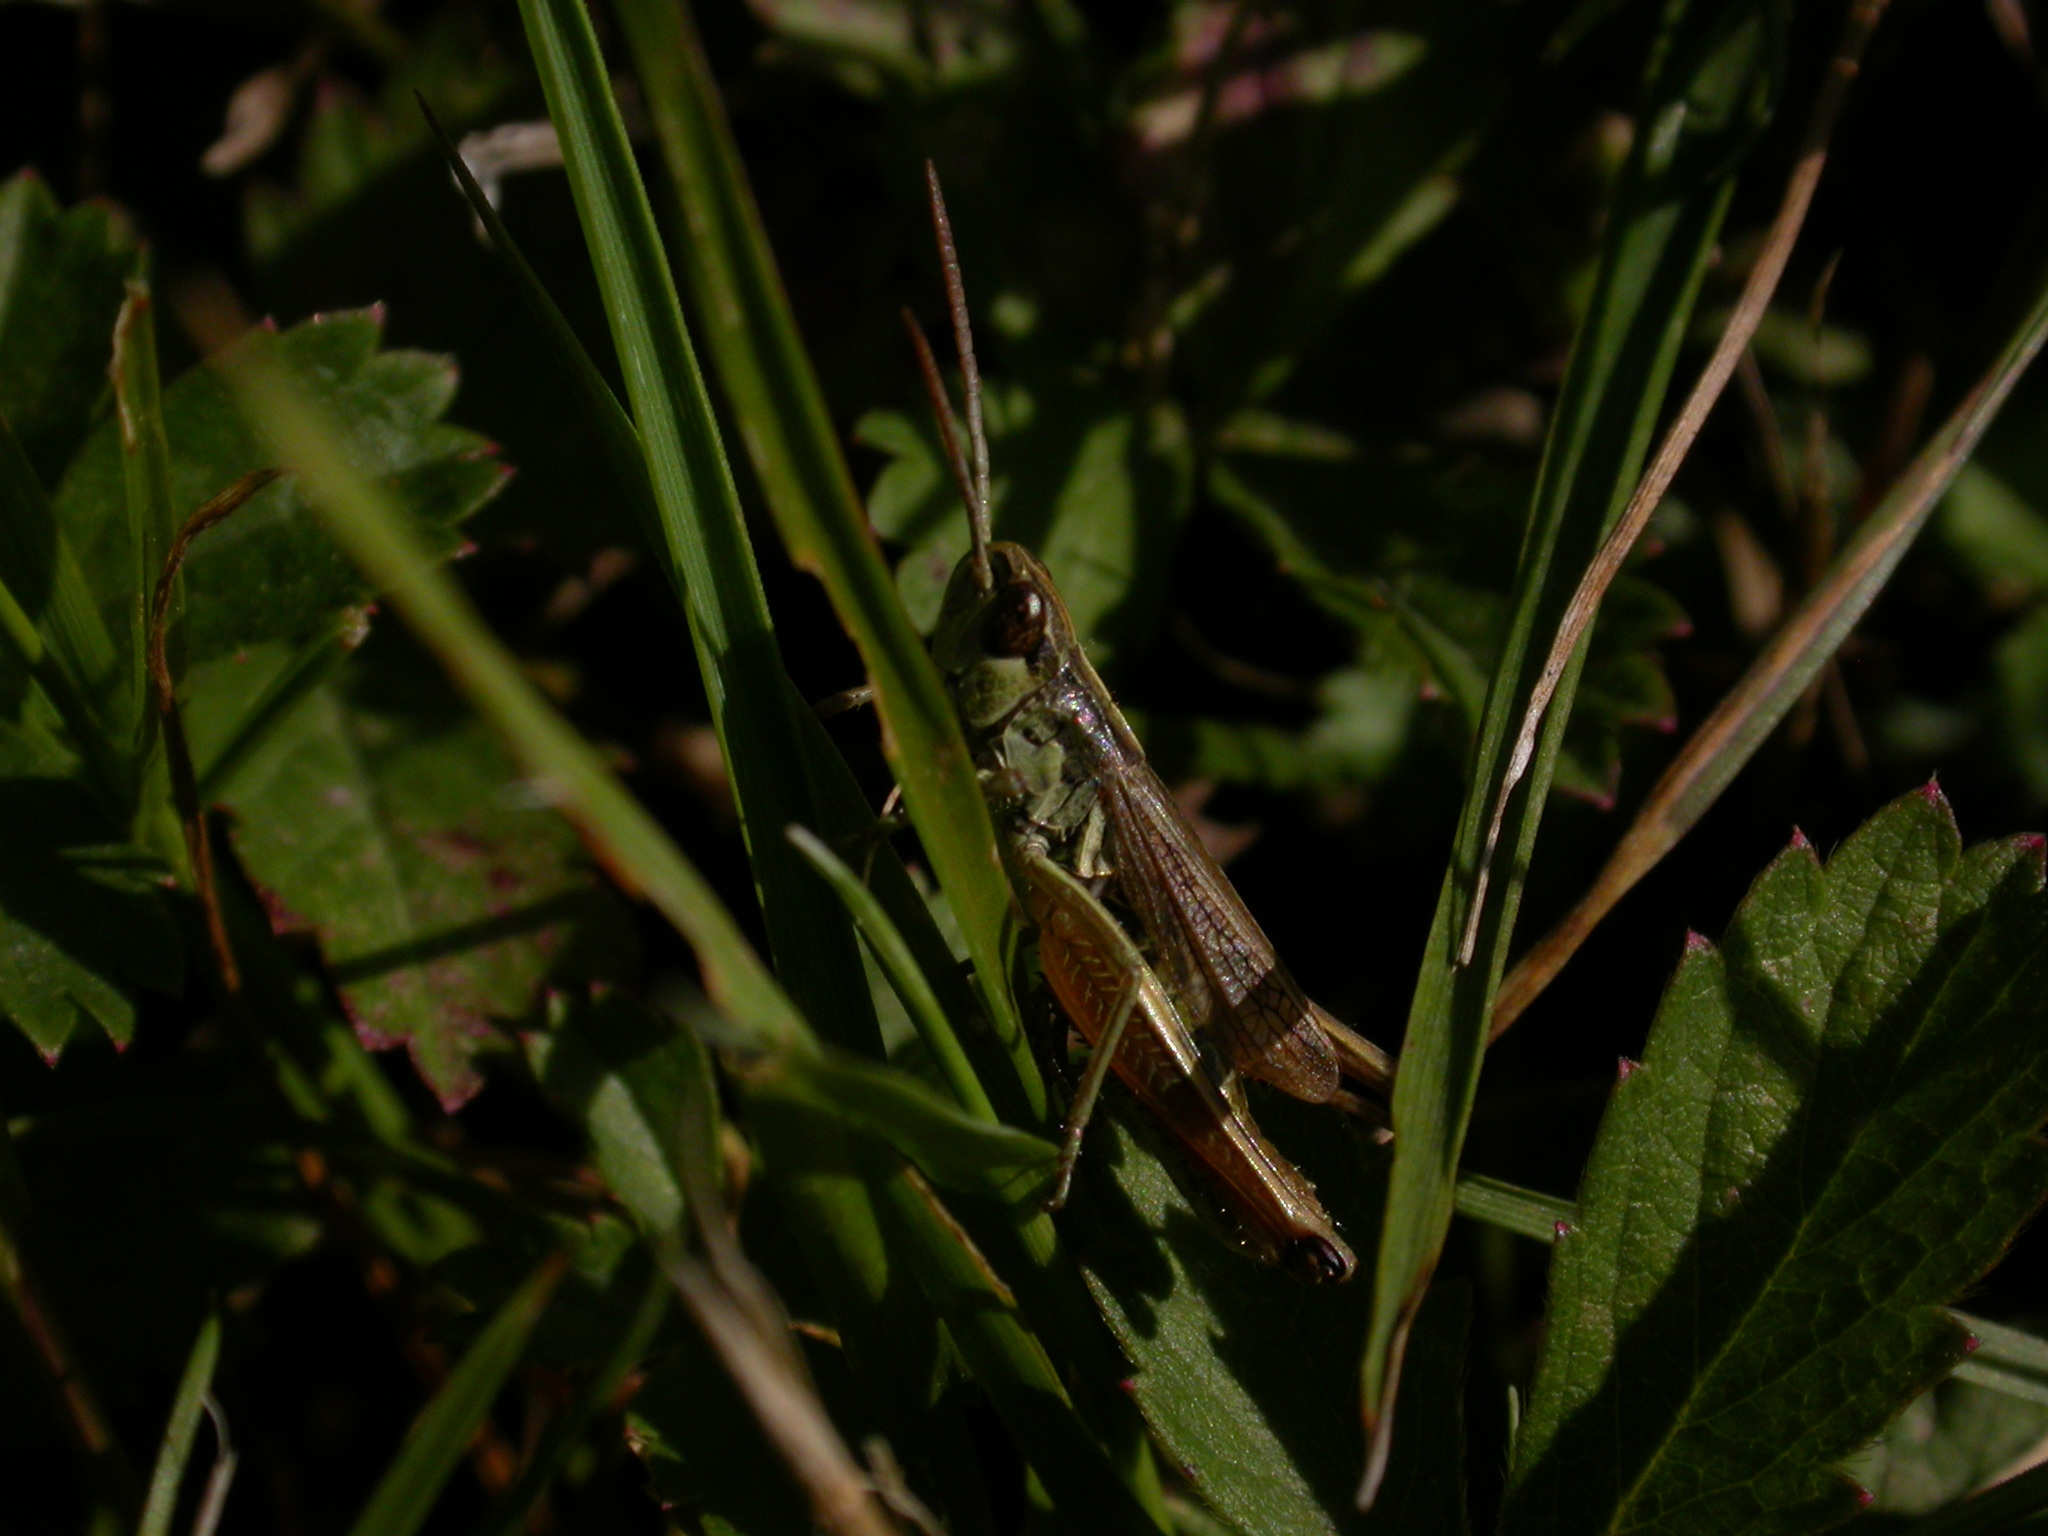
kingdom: Animalia
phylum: Arthropoda
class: Insecta
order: Orthoptera
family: Acrididae
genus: Pseudochorthippus
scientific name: Pseudochorthippus parallelus
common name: Meadow grasshopper
